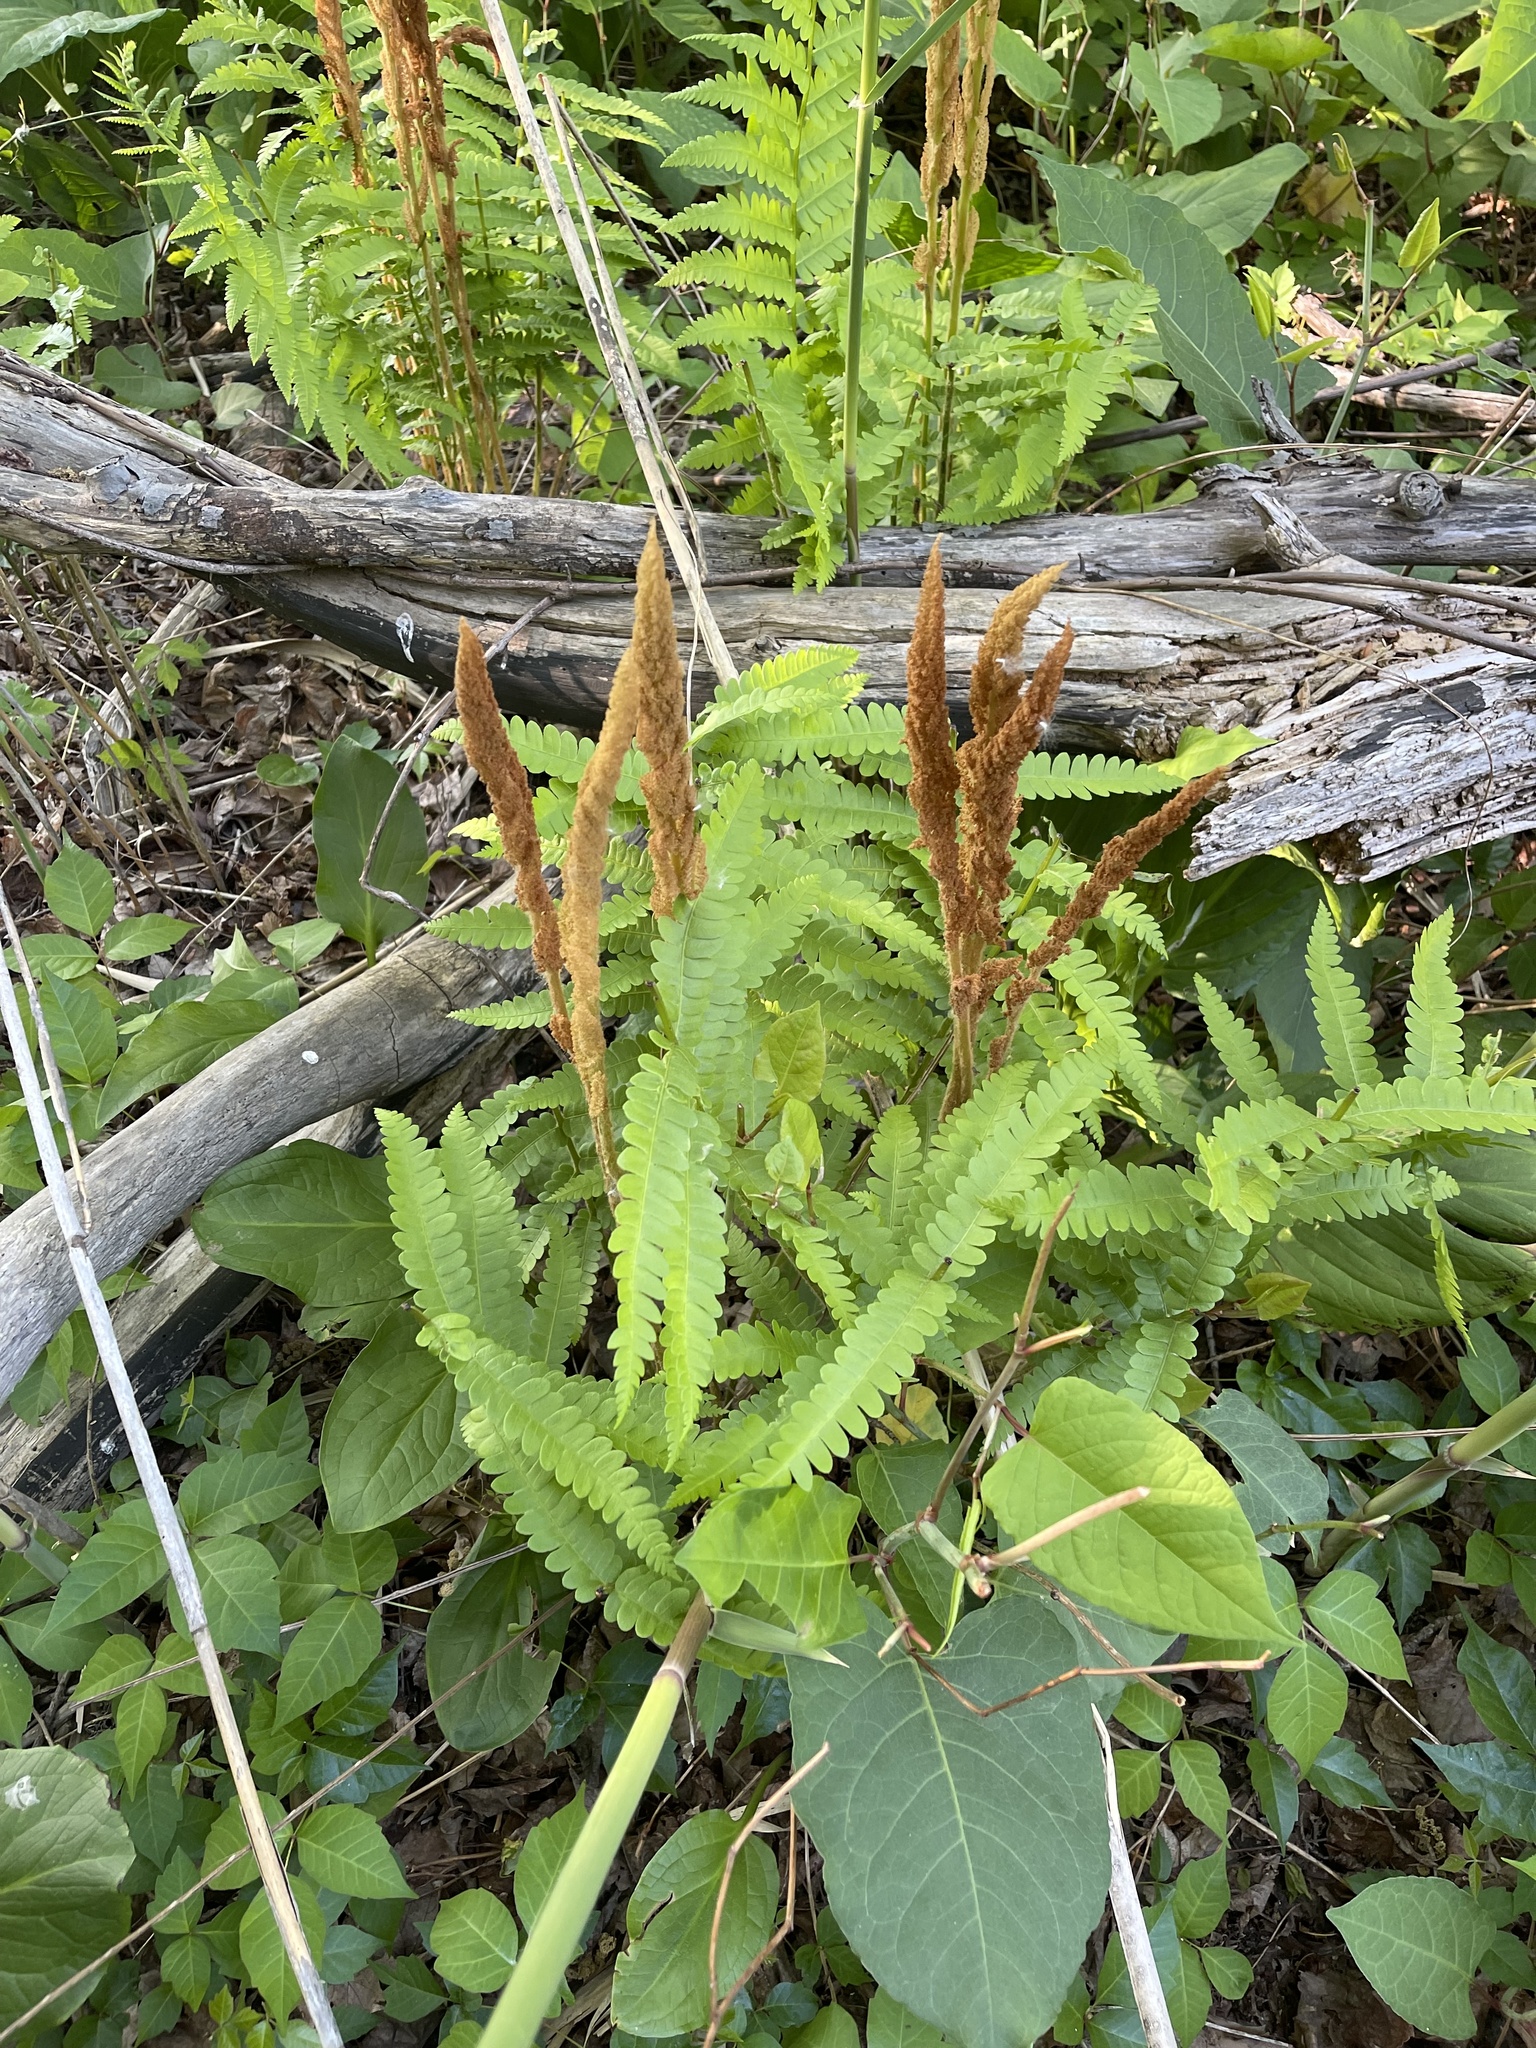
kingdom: Plantae
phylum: Tracheophyta
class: Polypodiopsida
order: Osmundales
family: Osmundaceae
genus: Osmundastrum
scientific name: Osmundastrum cinnamomeum
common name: Cinnamon fern
